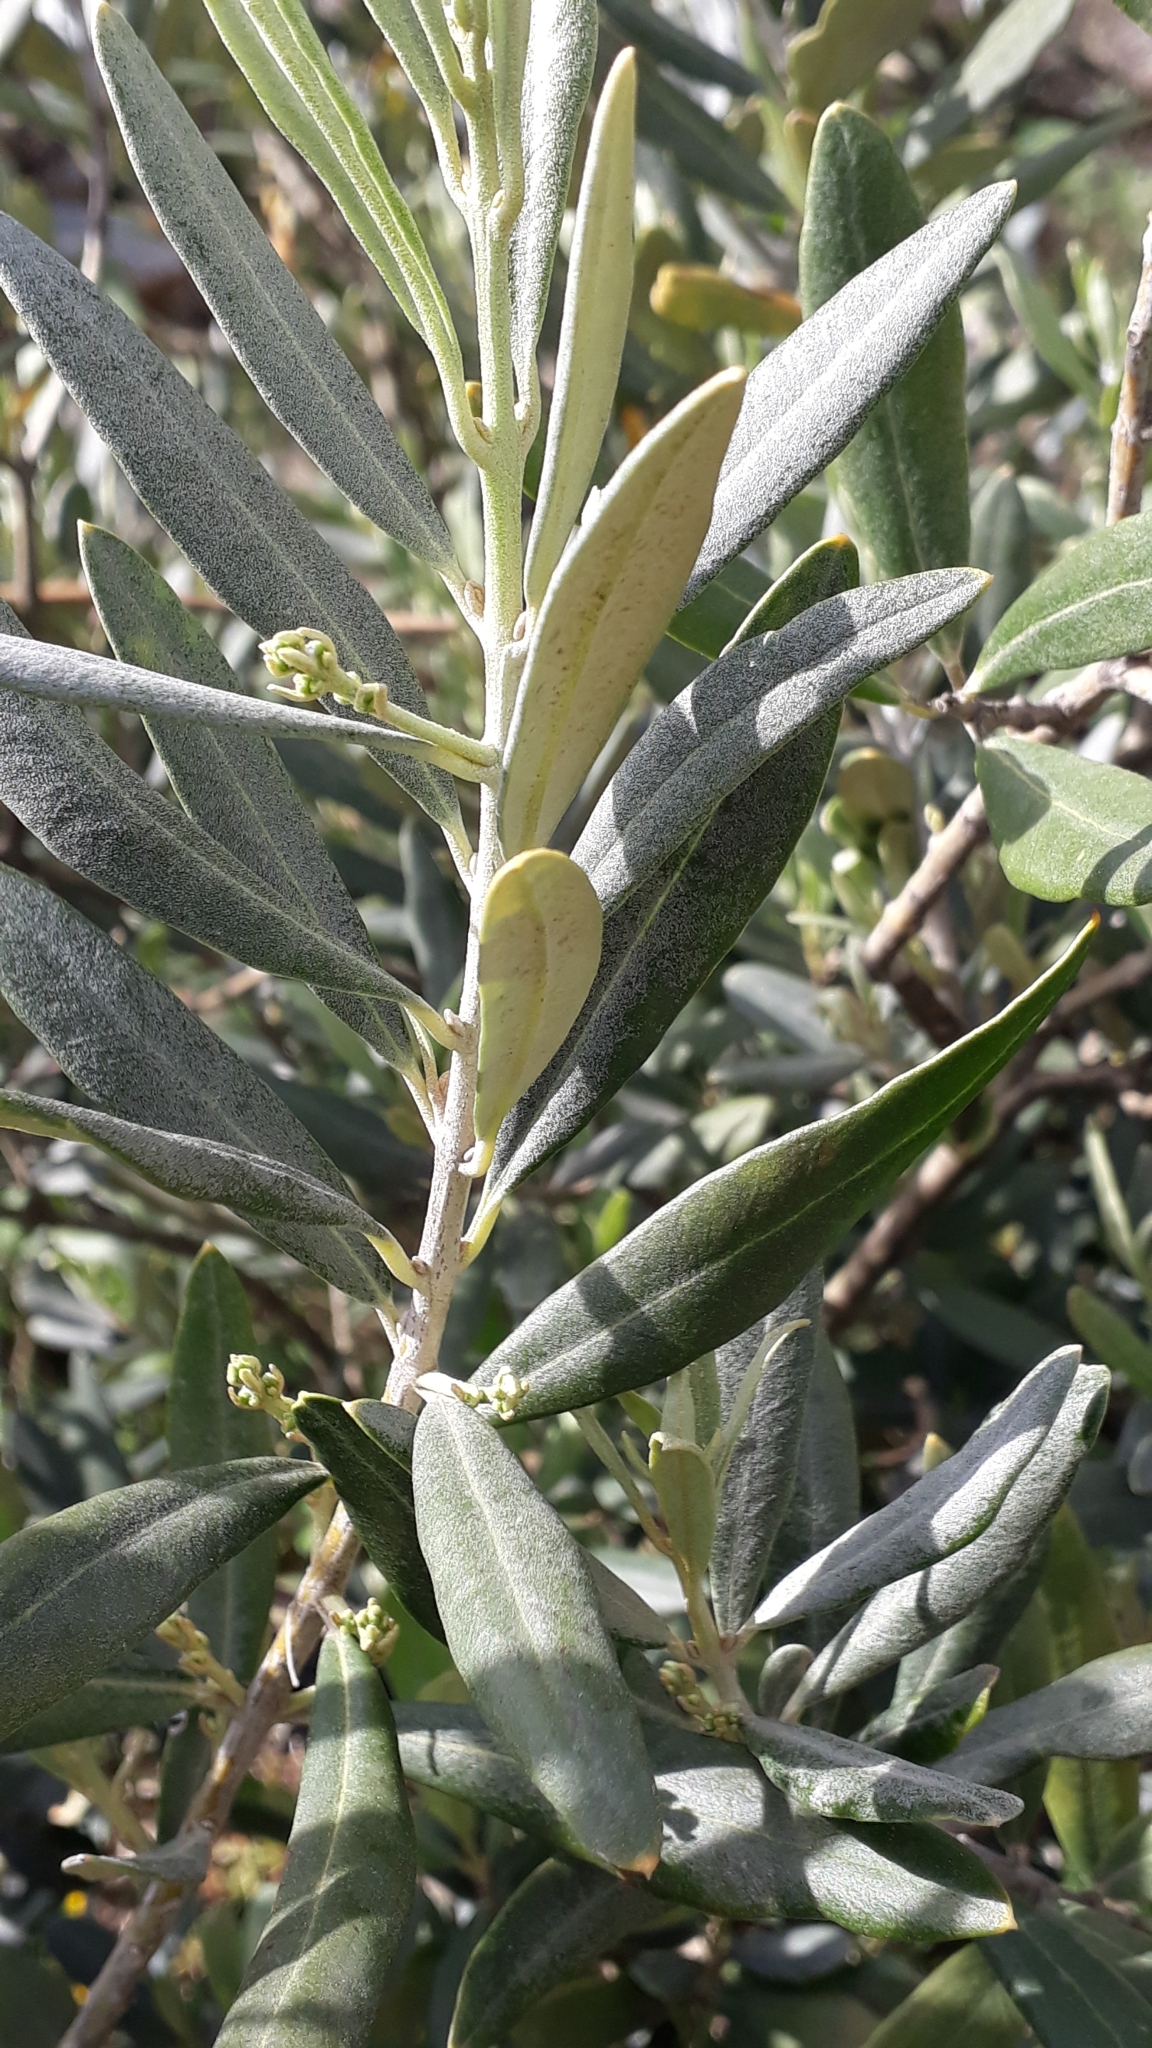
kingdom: Plantae
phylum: Tracheophyta
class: Magnoliopsida
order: Lamiales
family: Oleaceae
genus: Olea
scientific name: Olea europaea
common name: Olive
